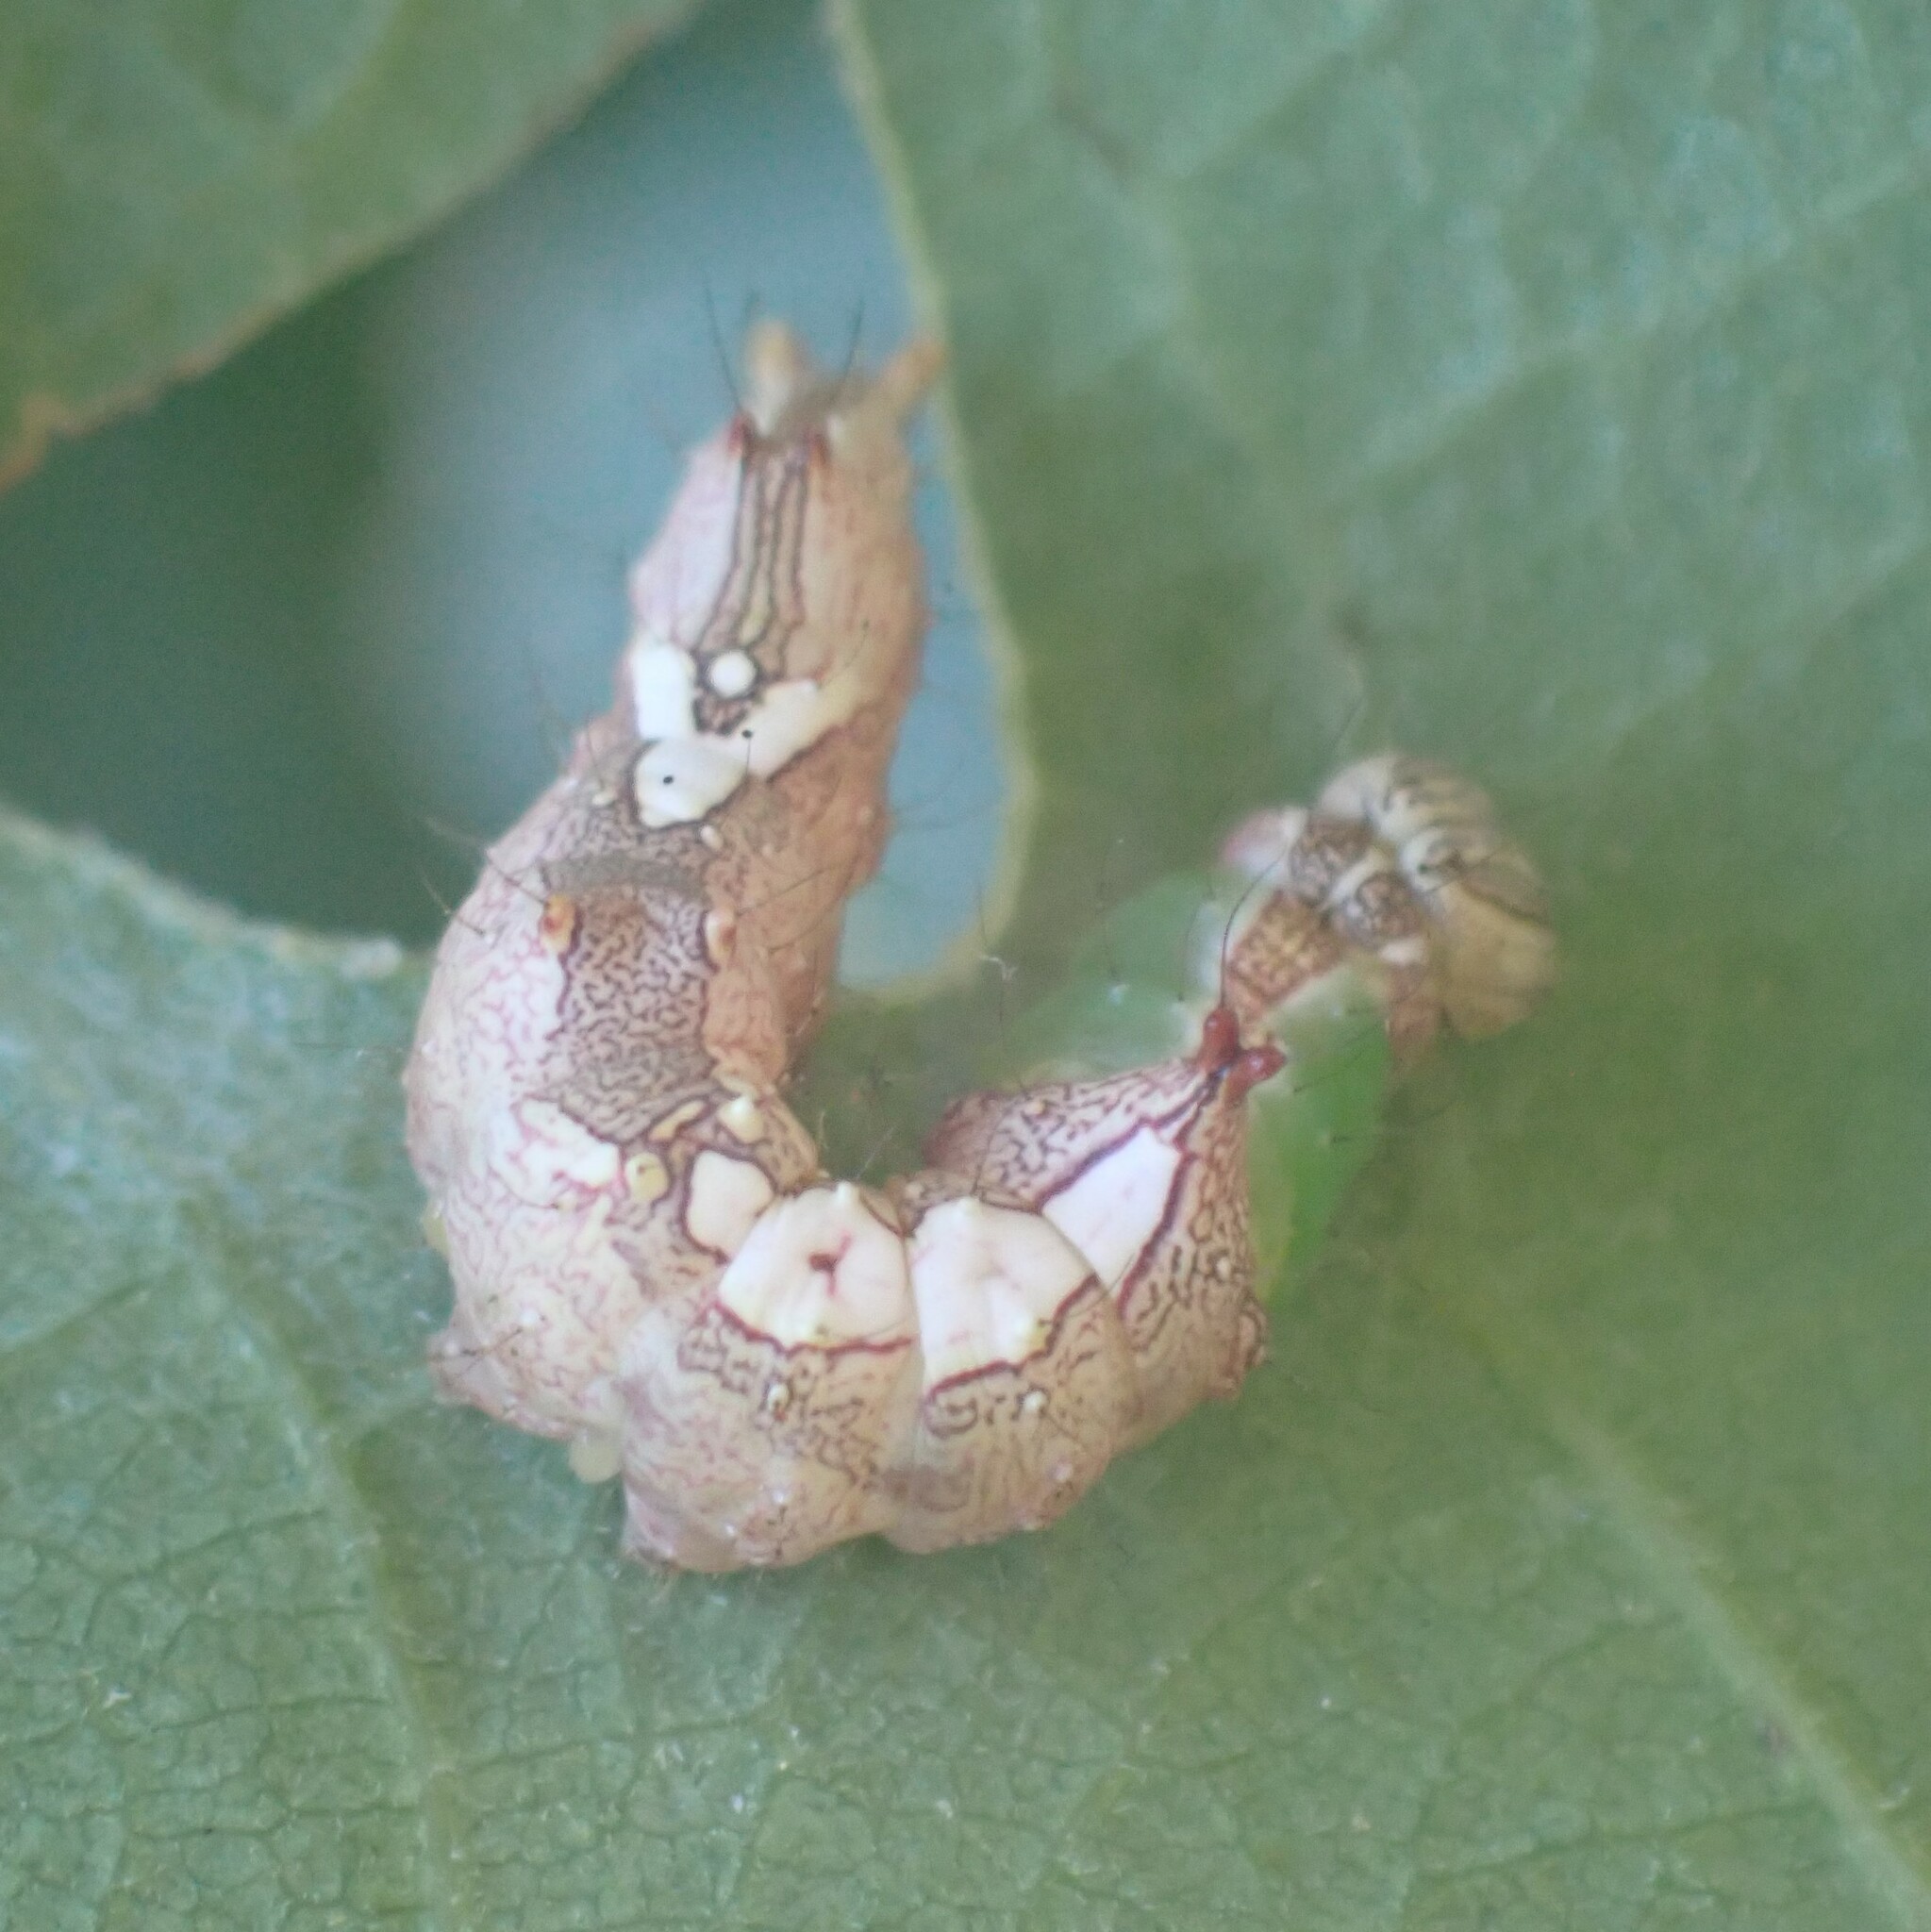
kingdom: Animalia
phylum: Arthropoda
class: Insecta
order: Lepidoptera
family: Notodontidae
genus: Schizura
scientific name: Schizura ipomaeae
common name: Morning-glory prominent
